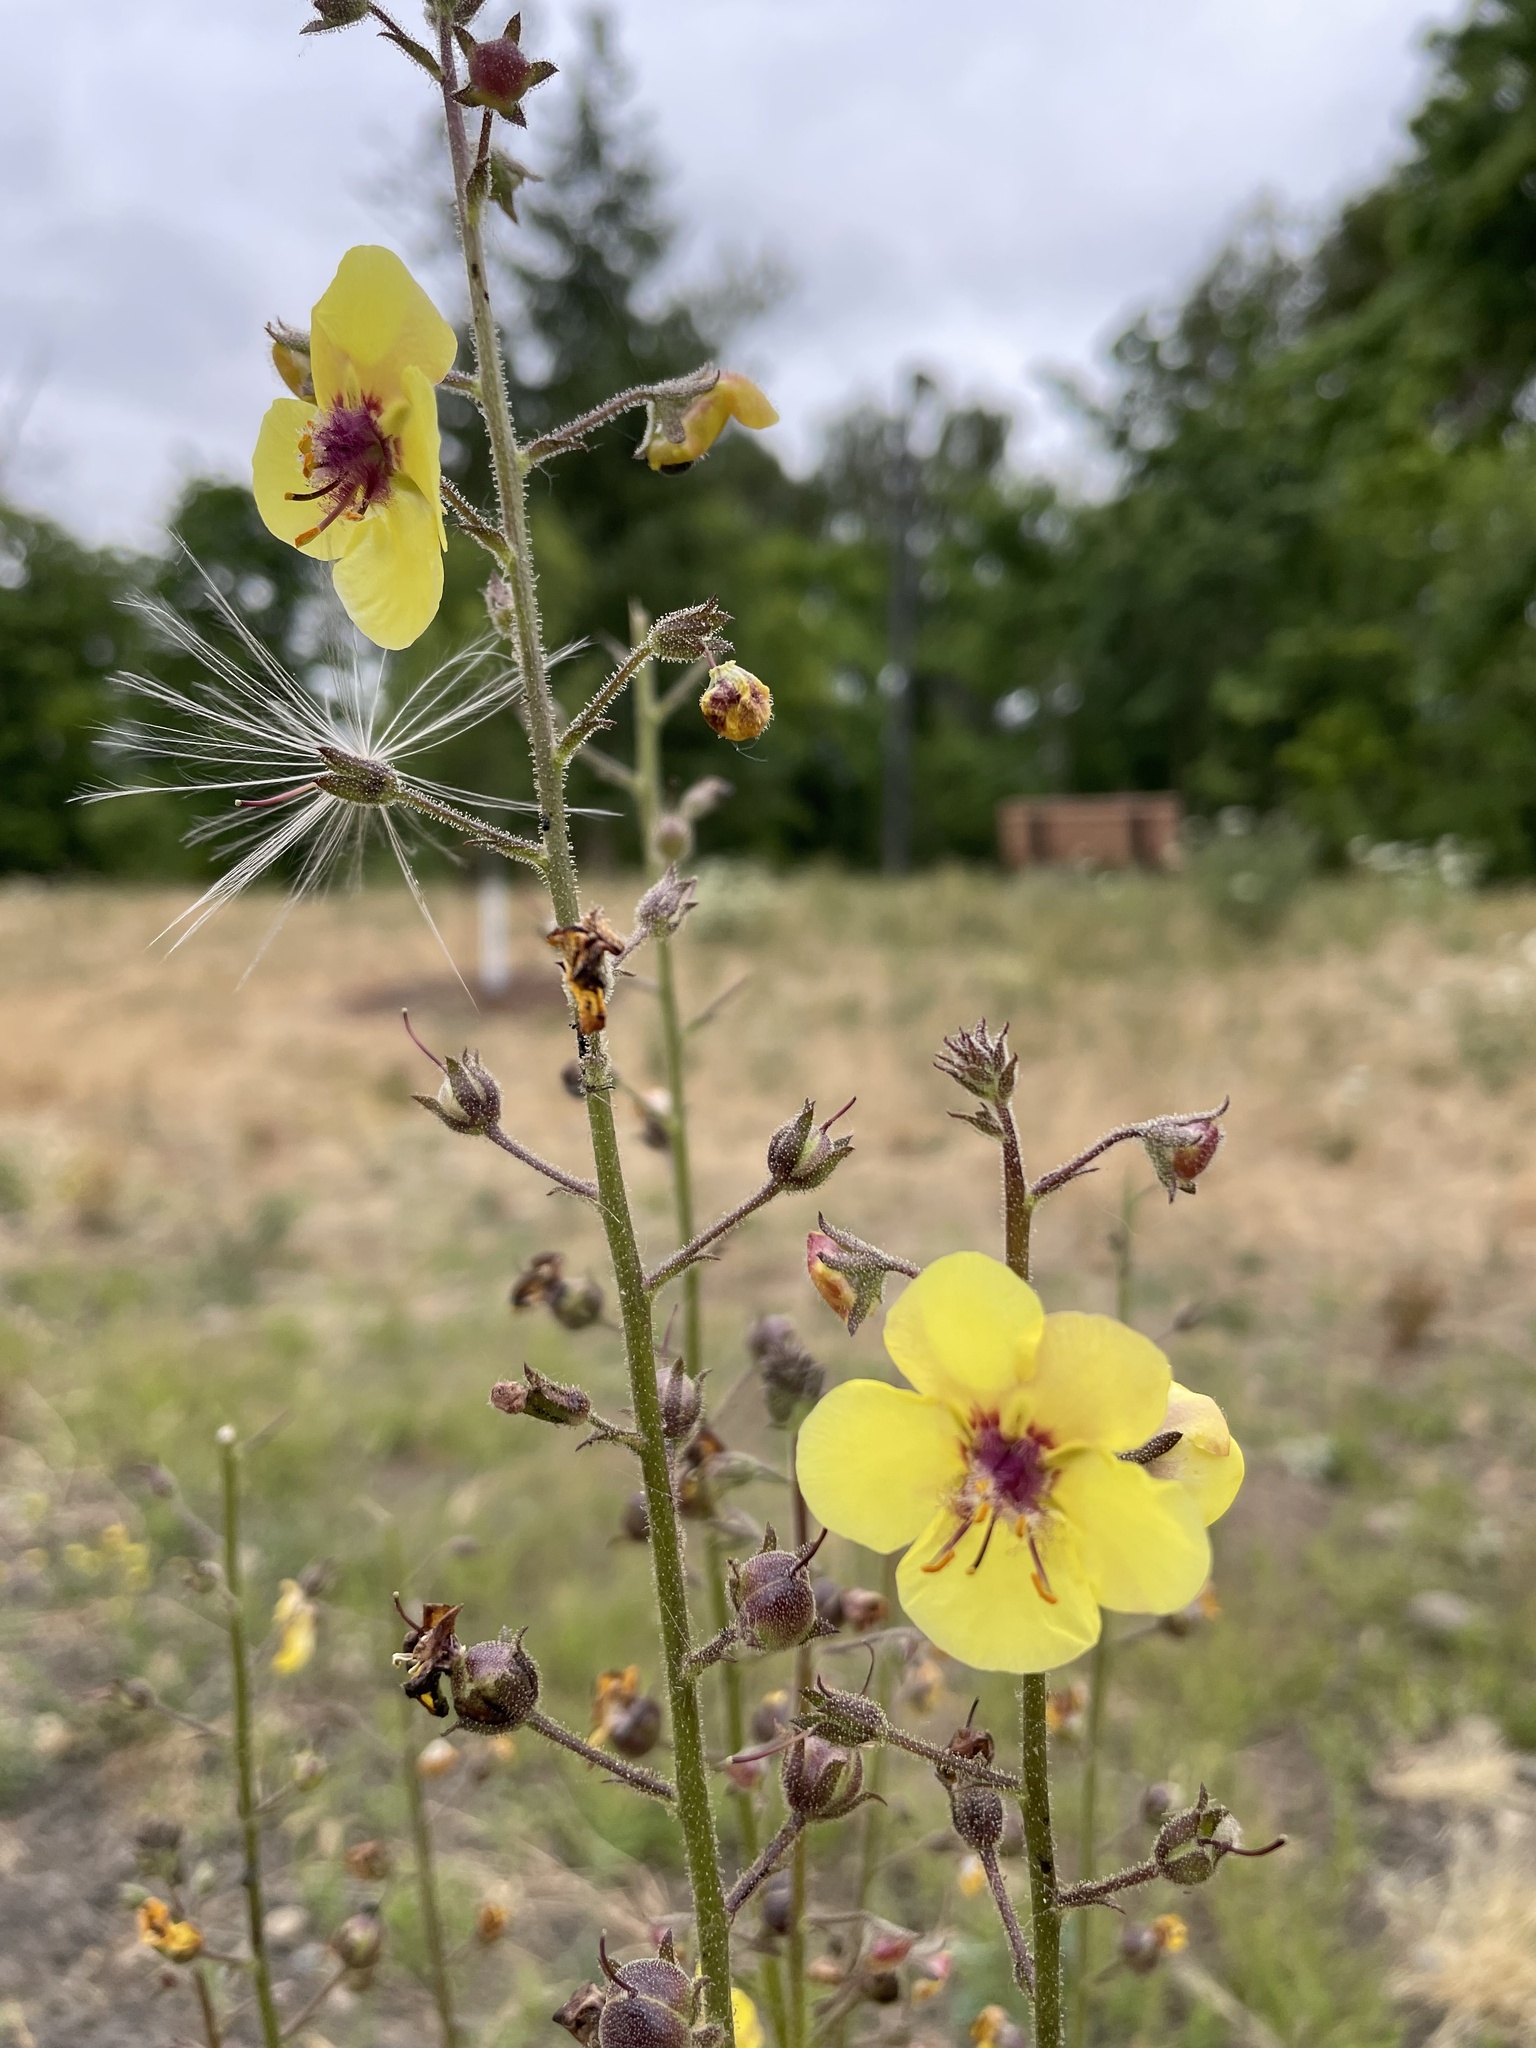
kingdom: Plantae
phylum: Tracheophyta
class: Magnoliopsida
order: Lamiales
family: Scrophulariaceae
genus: Verbascum
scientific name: Verbascum blattaria
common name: Moth mullein
